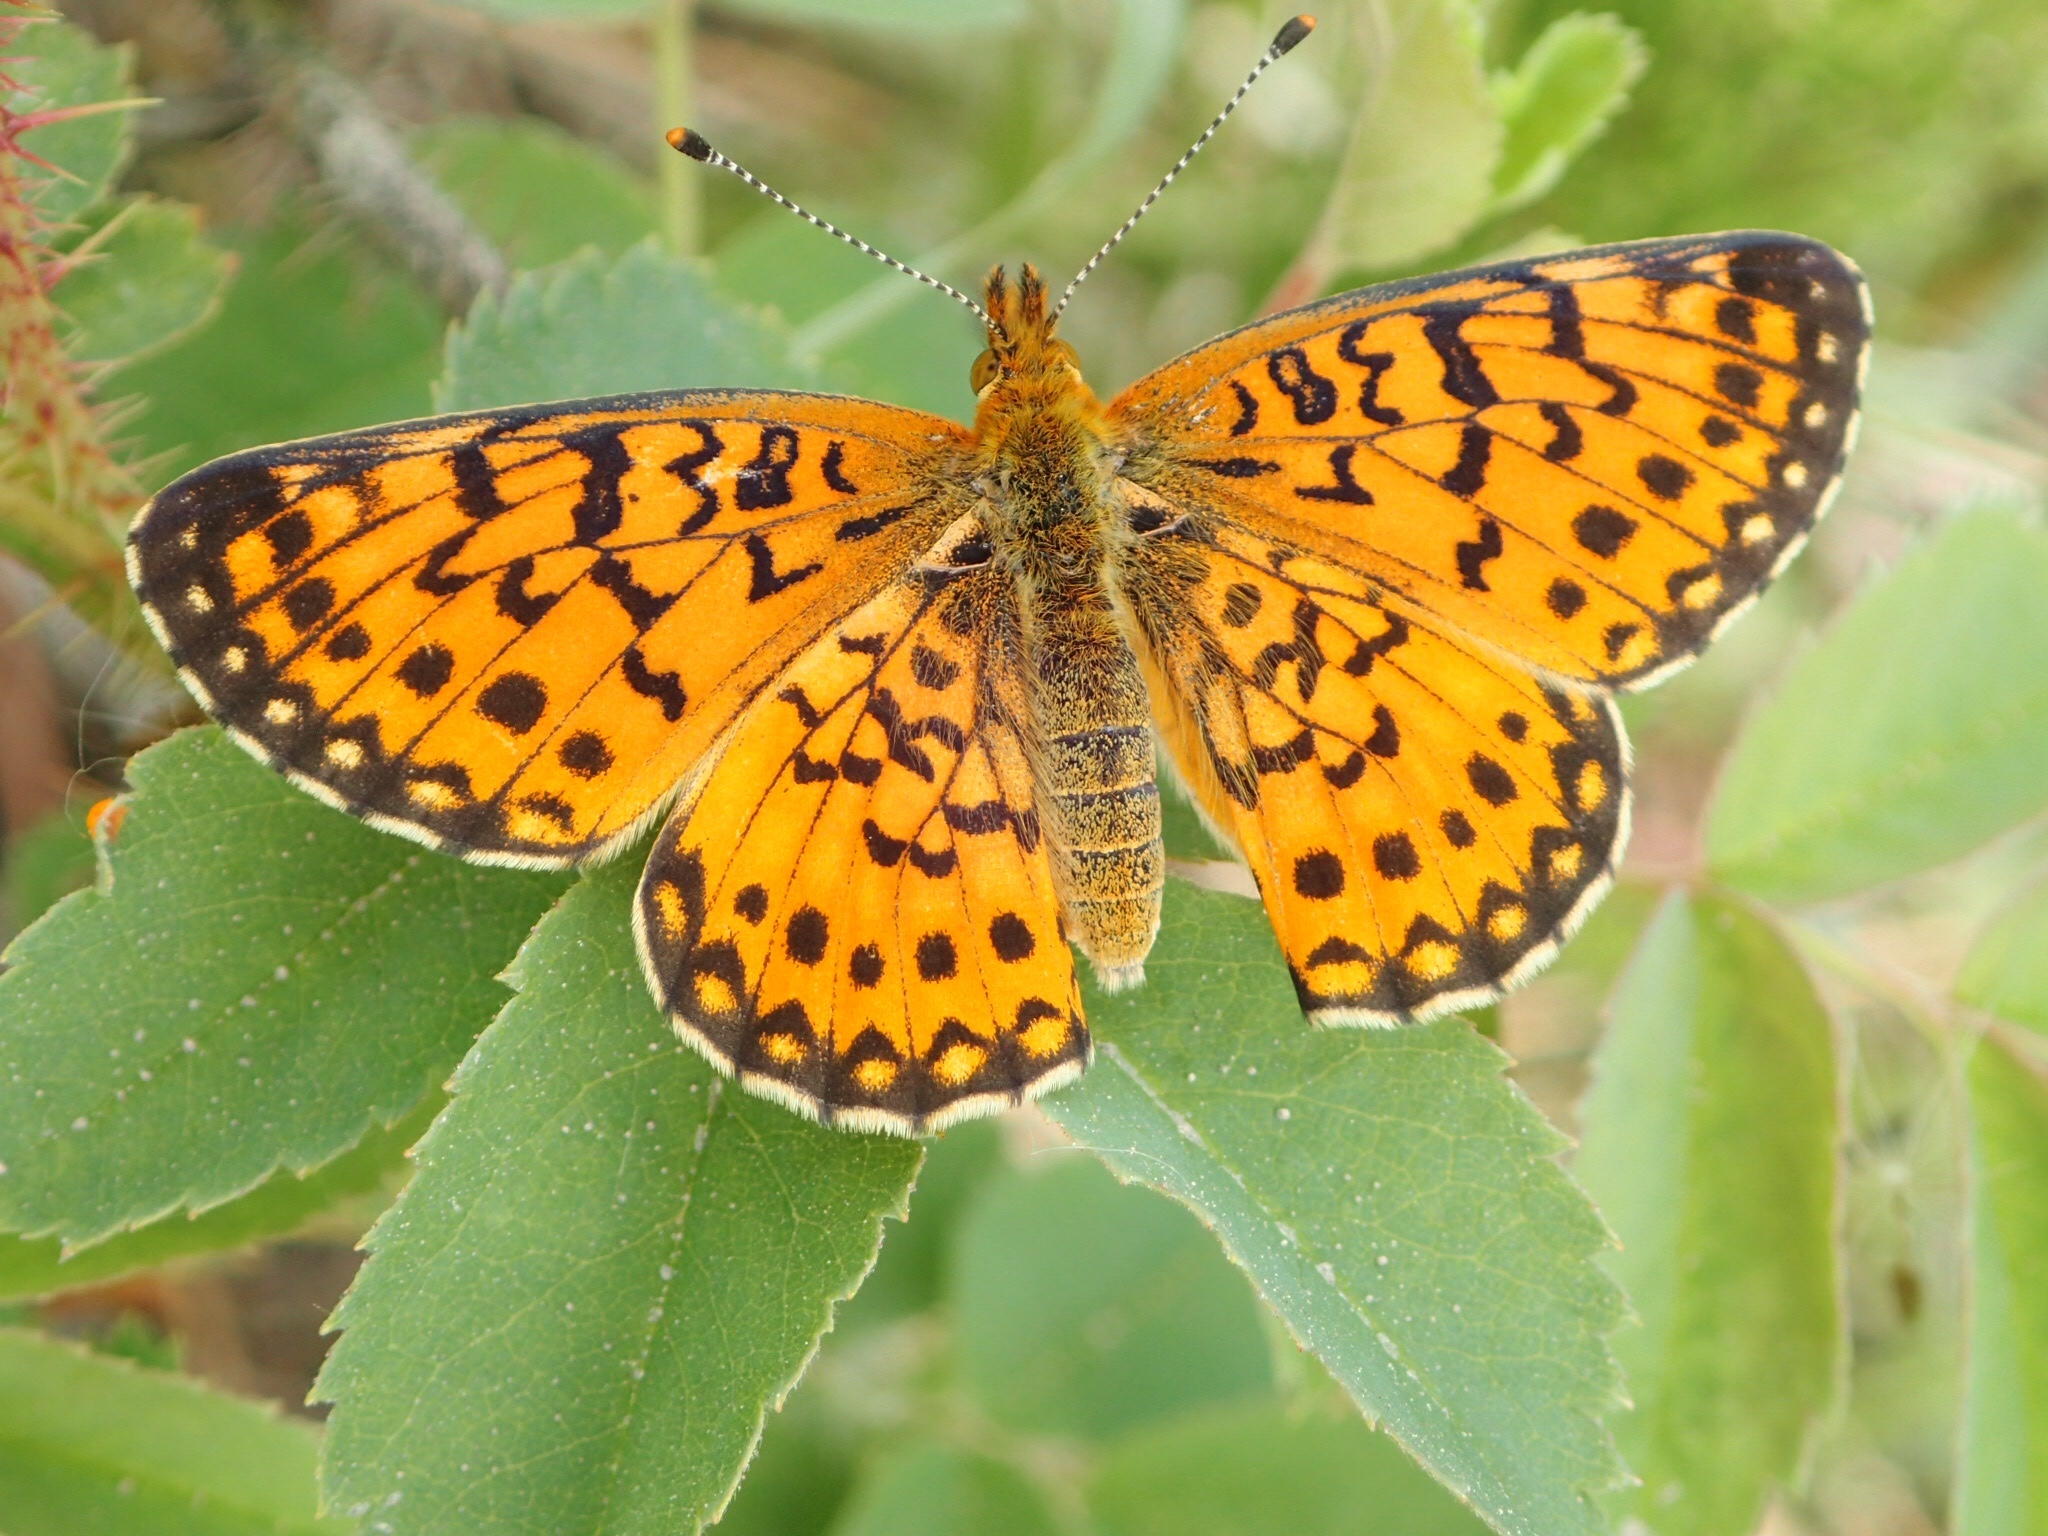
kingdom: Animalia
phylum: Arthropoda
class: Insecta
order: Lepidoptera
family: Nymphalidae
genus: Boloria
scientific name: Boloria
